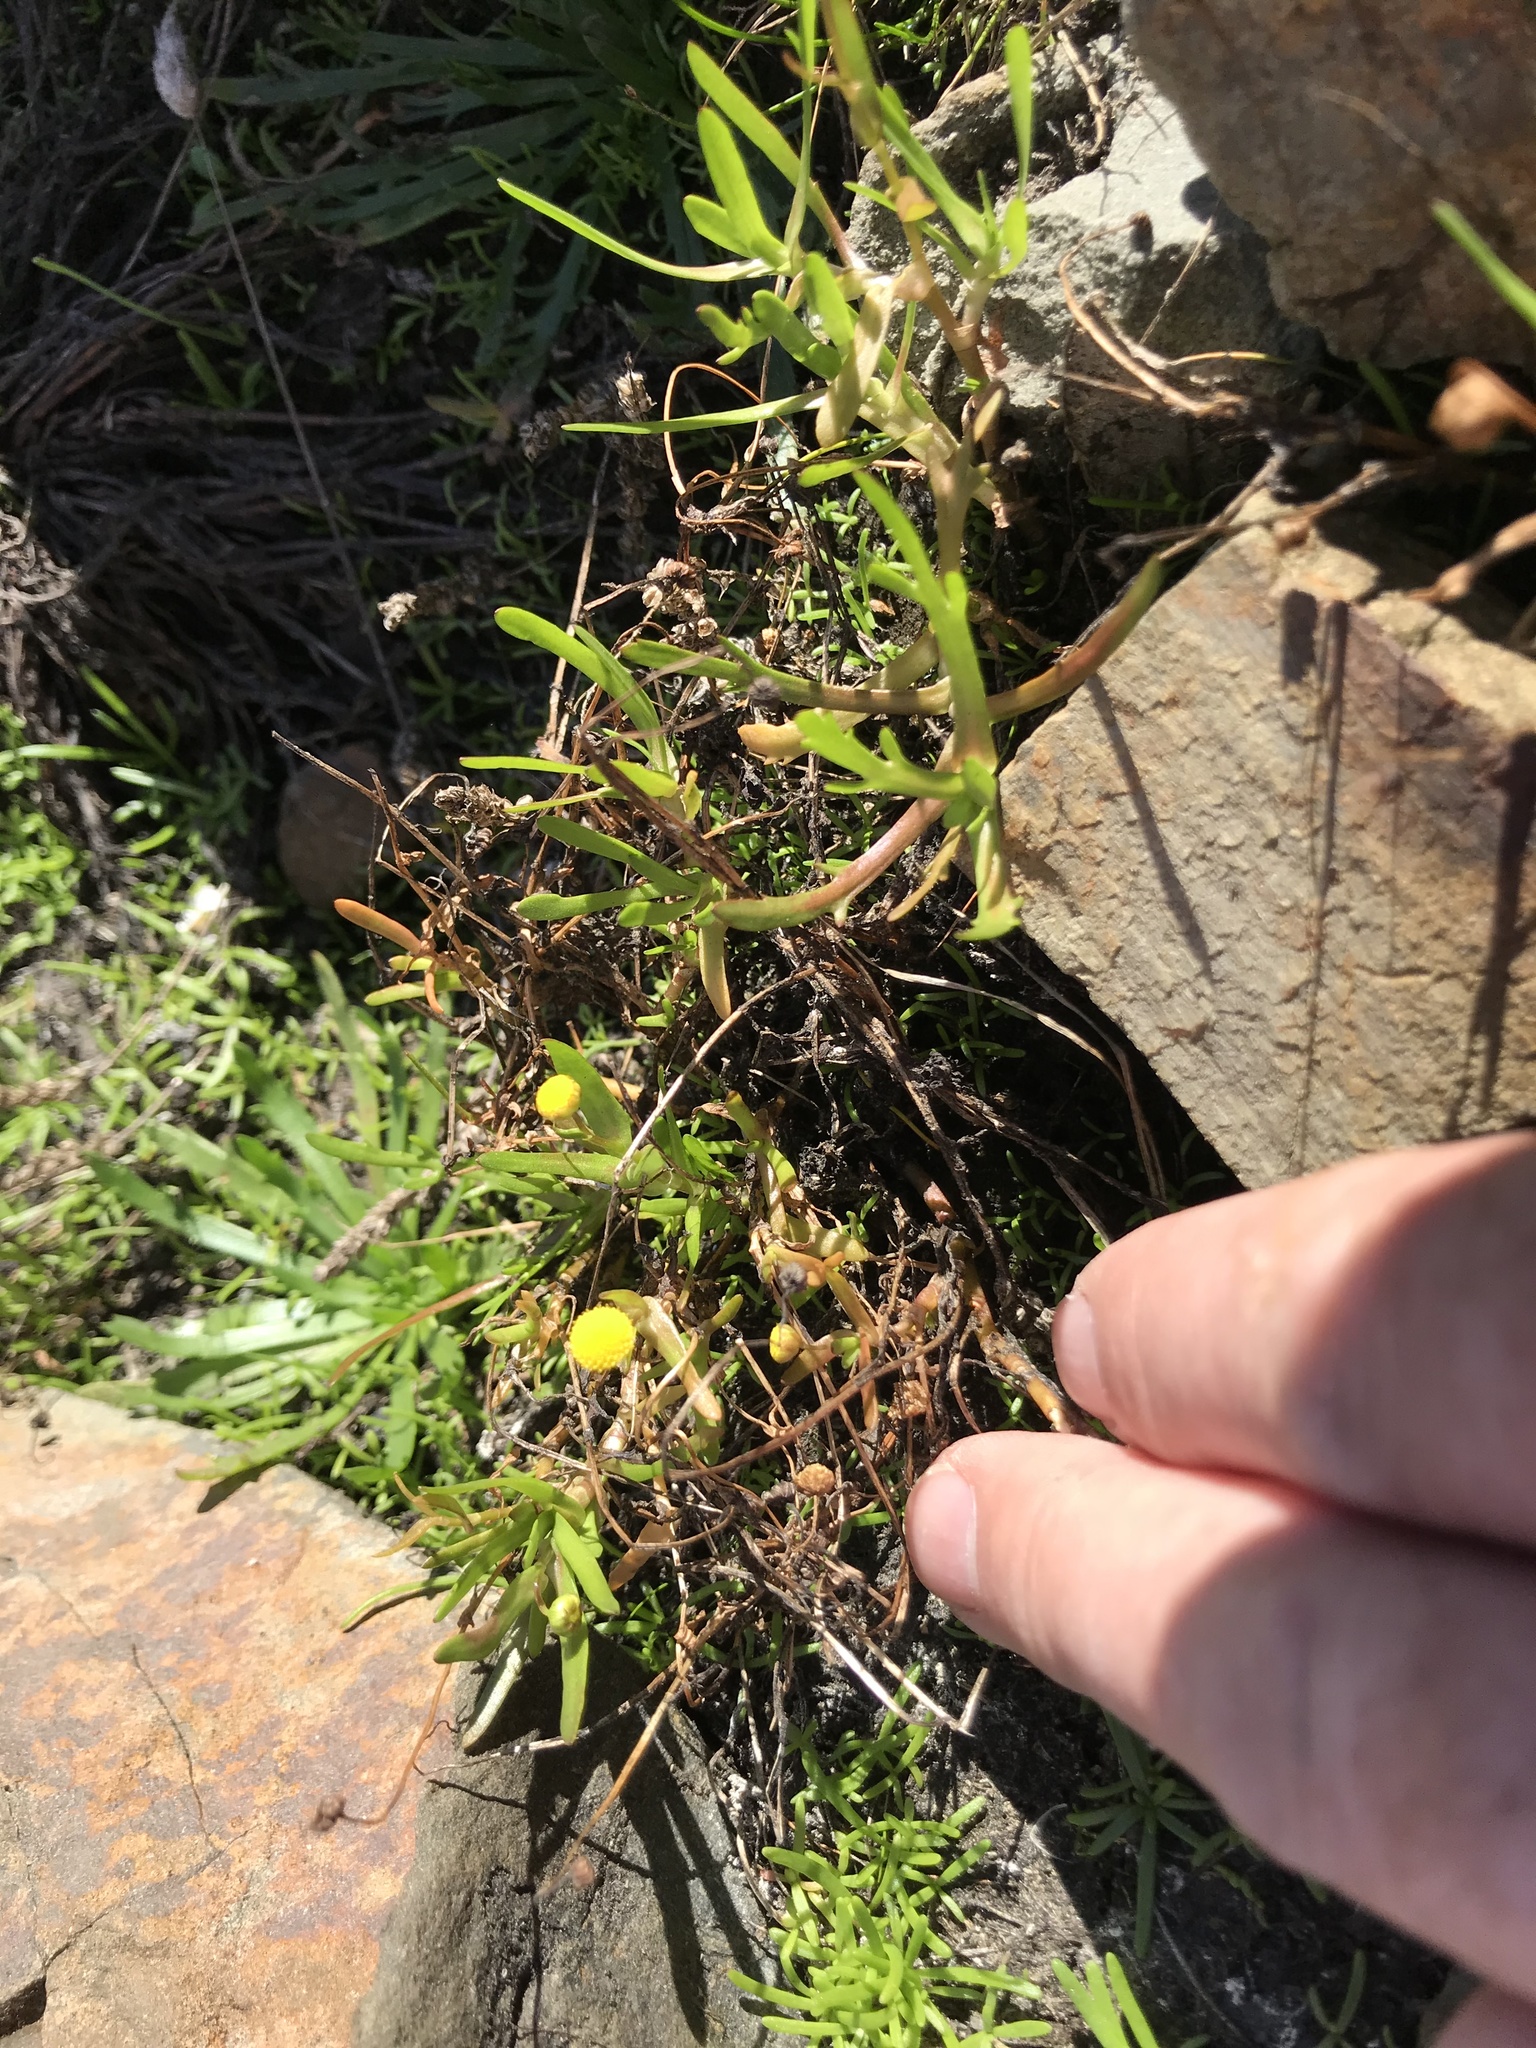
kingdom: Plantae
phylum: Tracheophyta
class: Magnoliopsida
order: Asterales
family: Asteraceae
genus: Cotula
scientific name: Cotula coronopifolia
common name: Buttonweed
